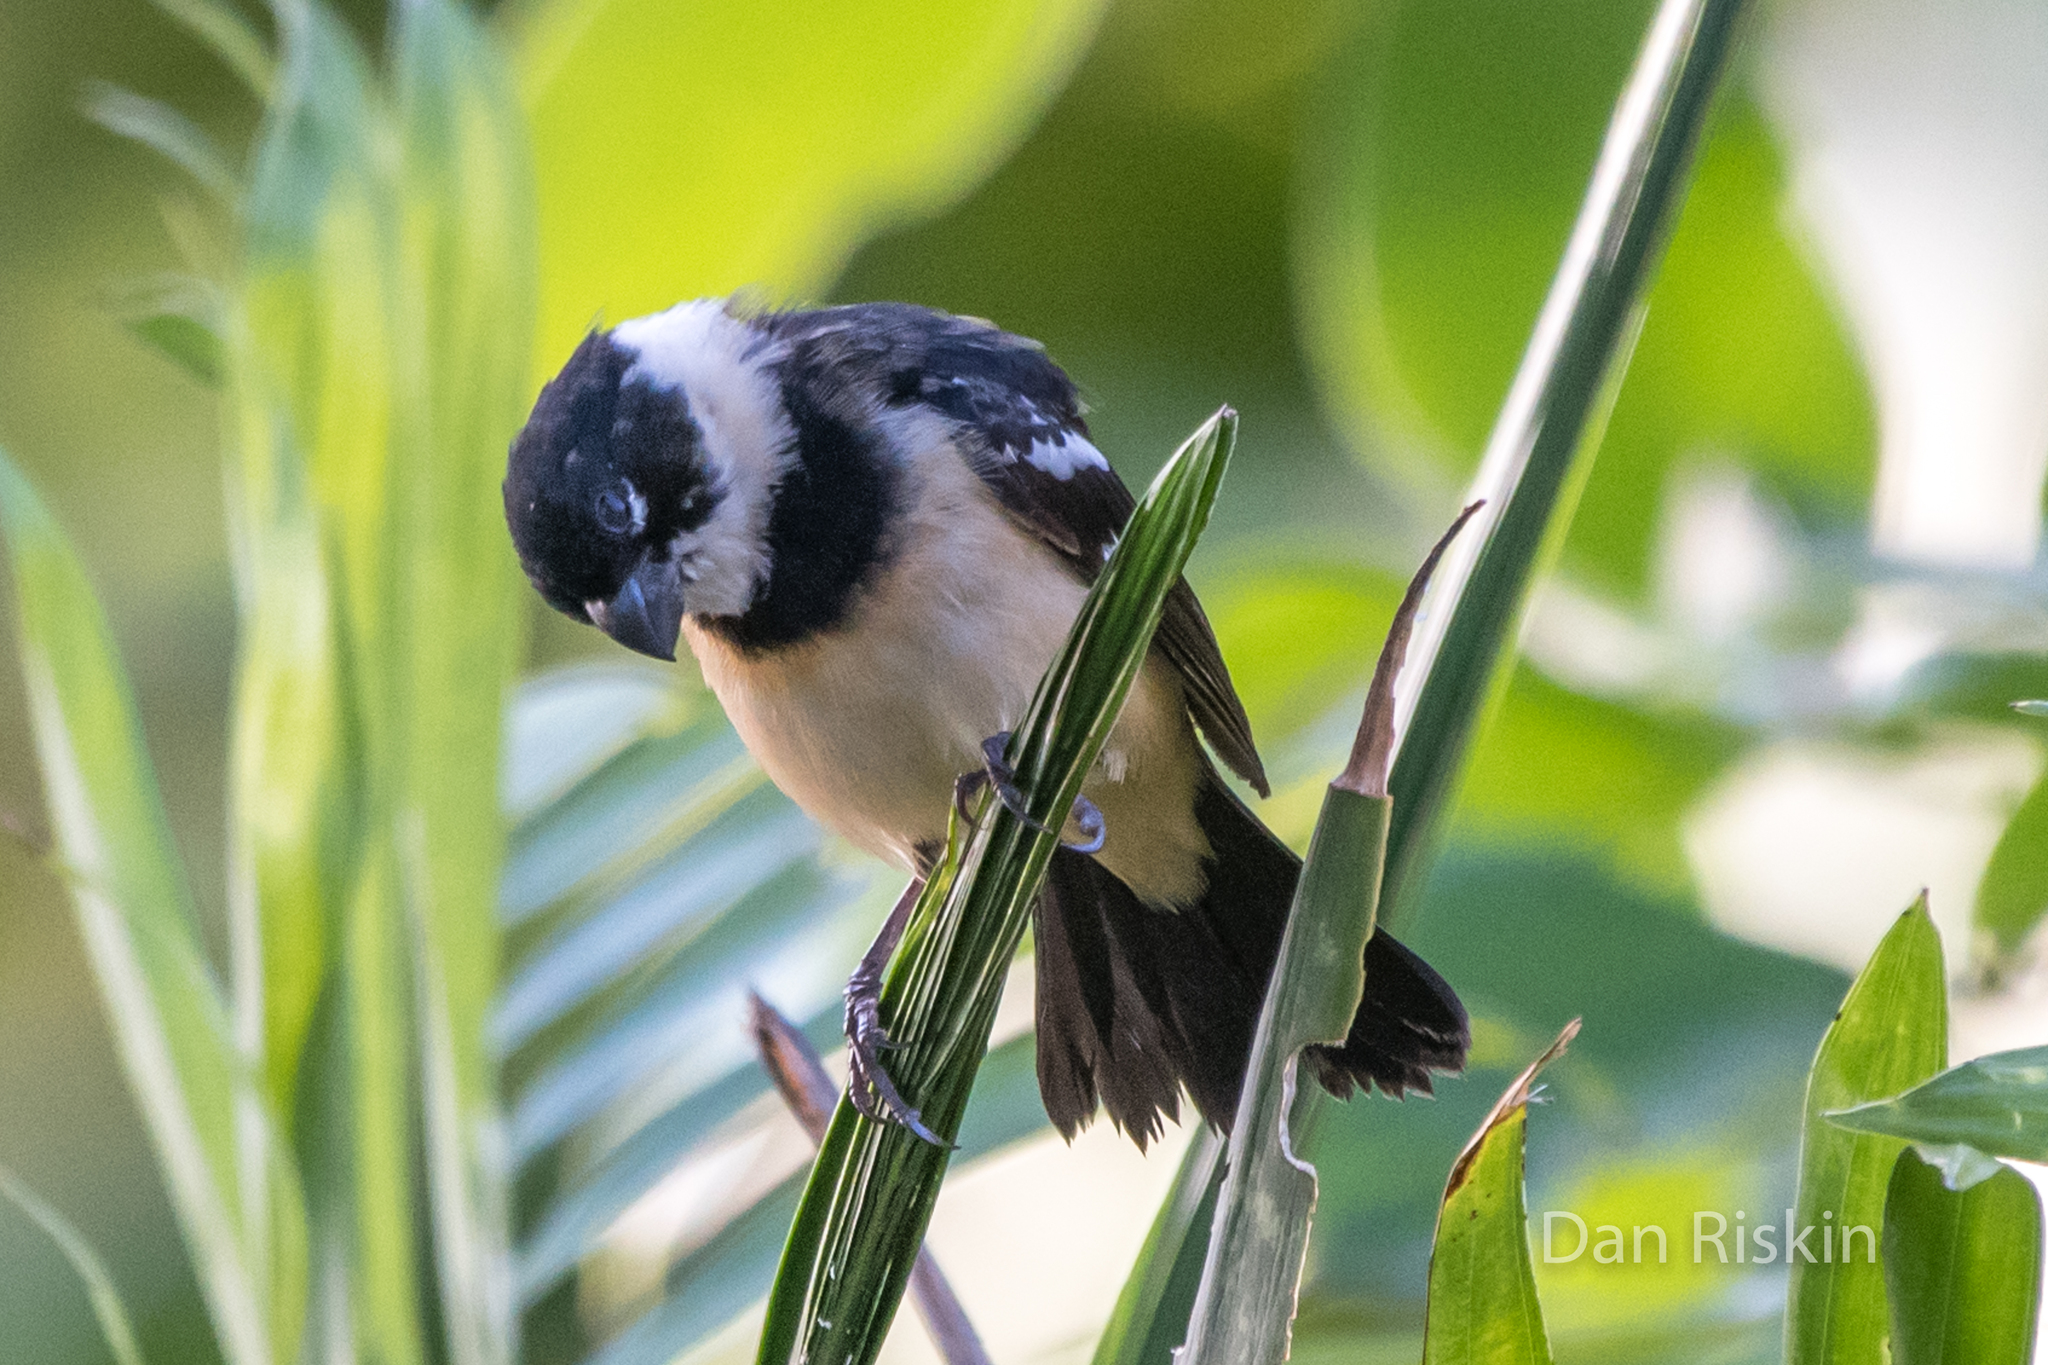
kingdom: Animalia
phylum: Chordata
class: Aves
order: Passeriformes
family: Thraupidae
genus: Sporophila
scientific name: Sporophila morelleti
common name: Morelet's seedeater
